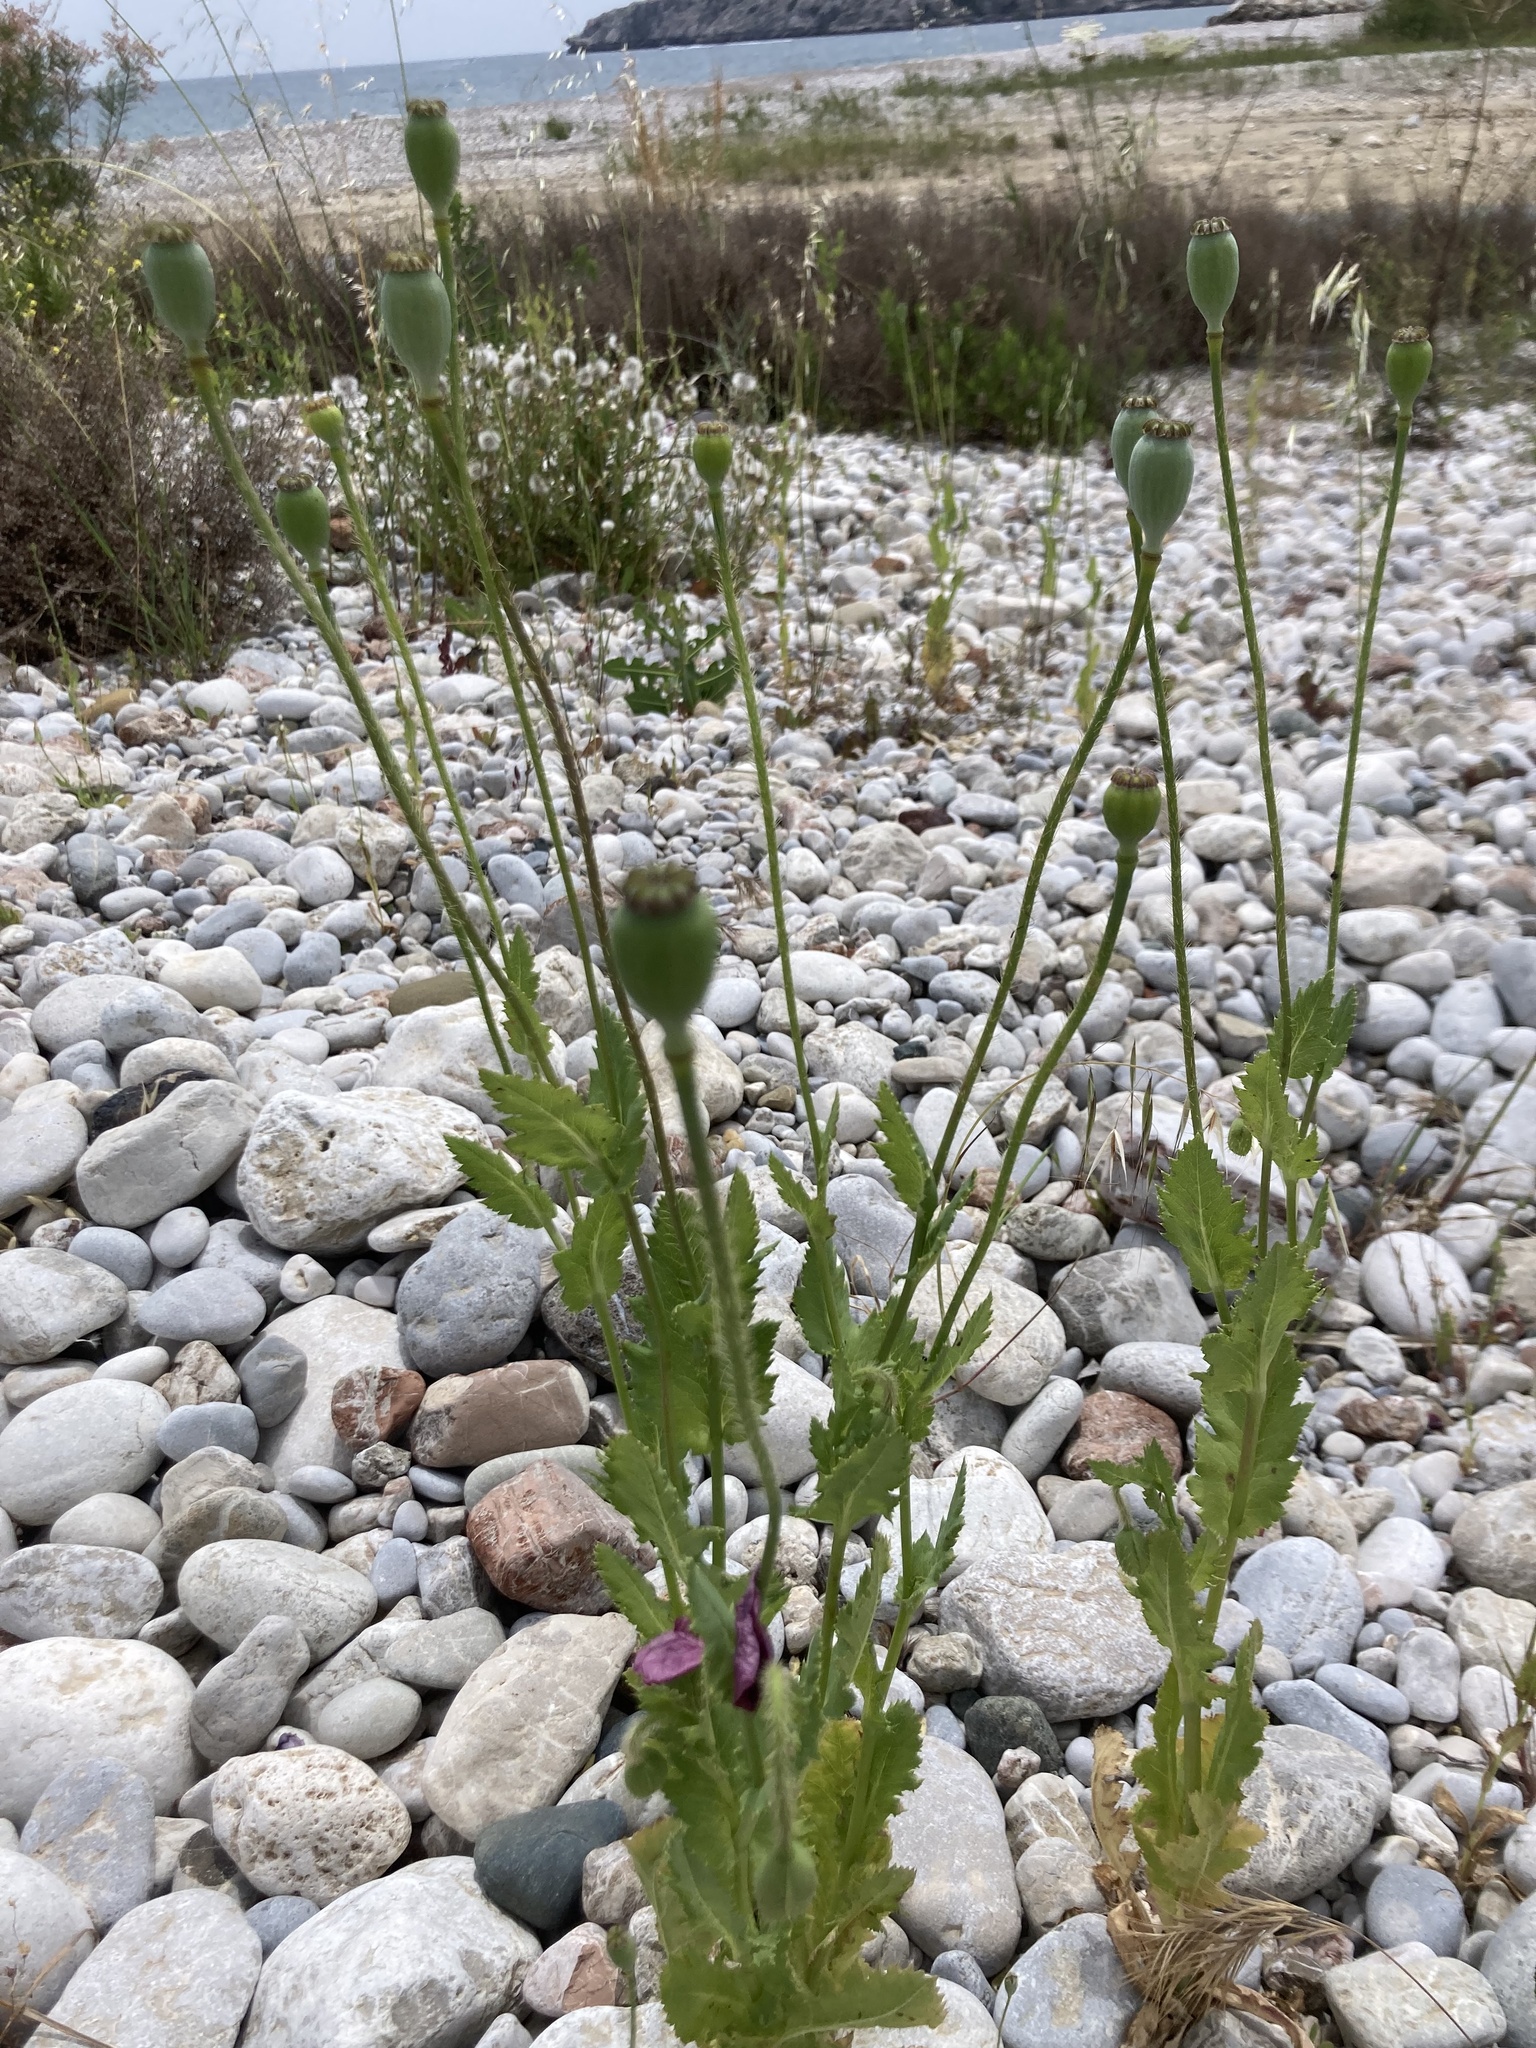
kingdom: Plantae
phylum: Tracheophyta
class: Magnoliopsida
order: Ranunculales
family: Papaveraceae
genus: Papaver
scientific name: Papaver setigerum
